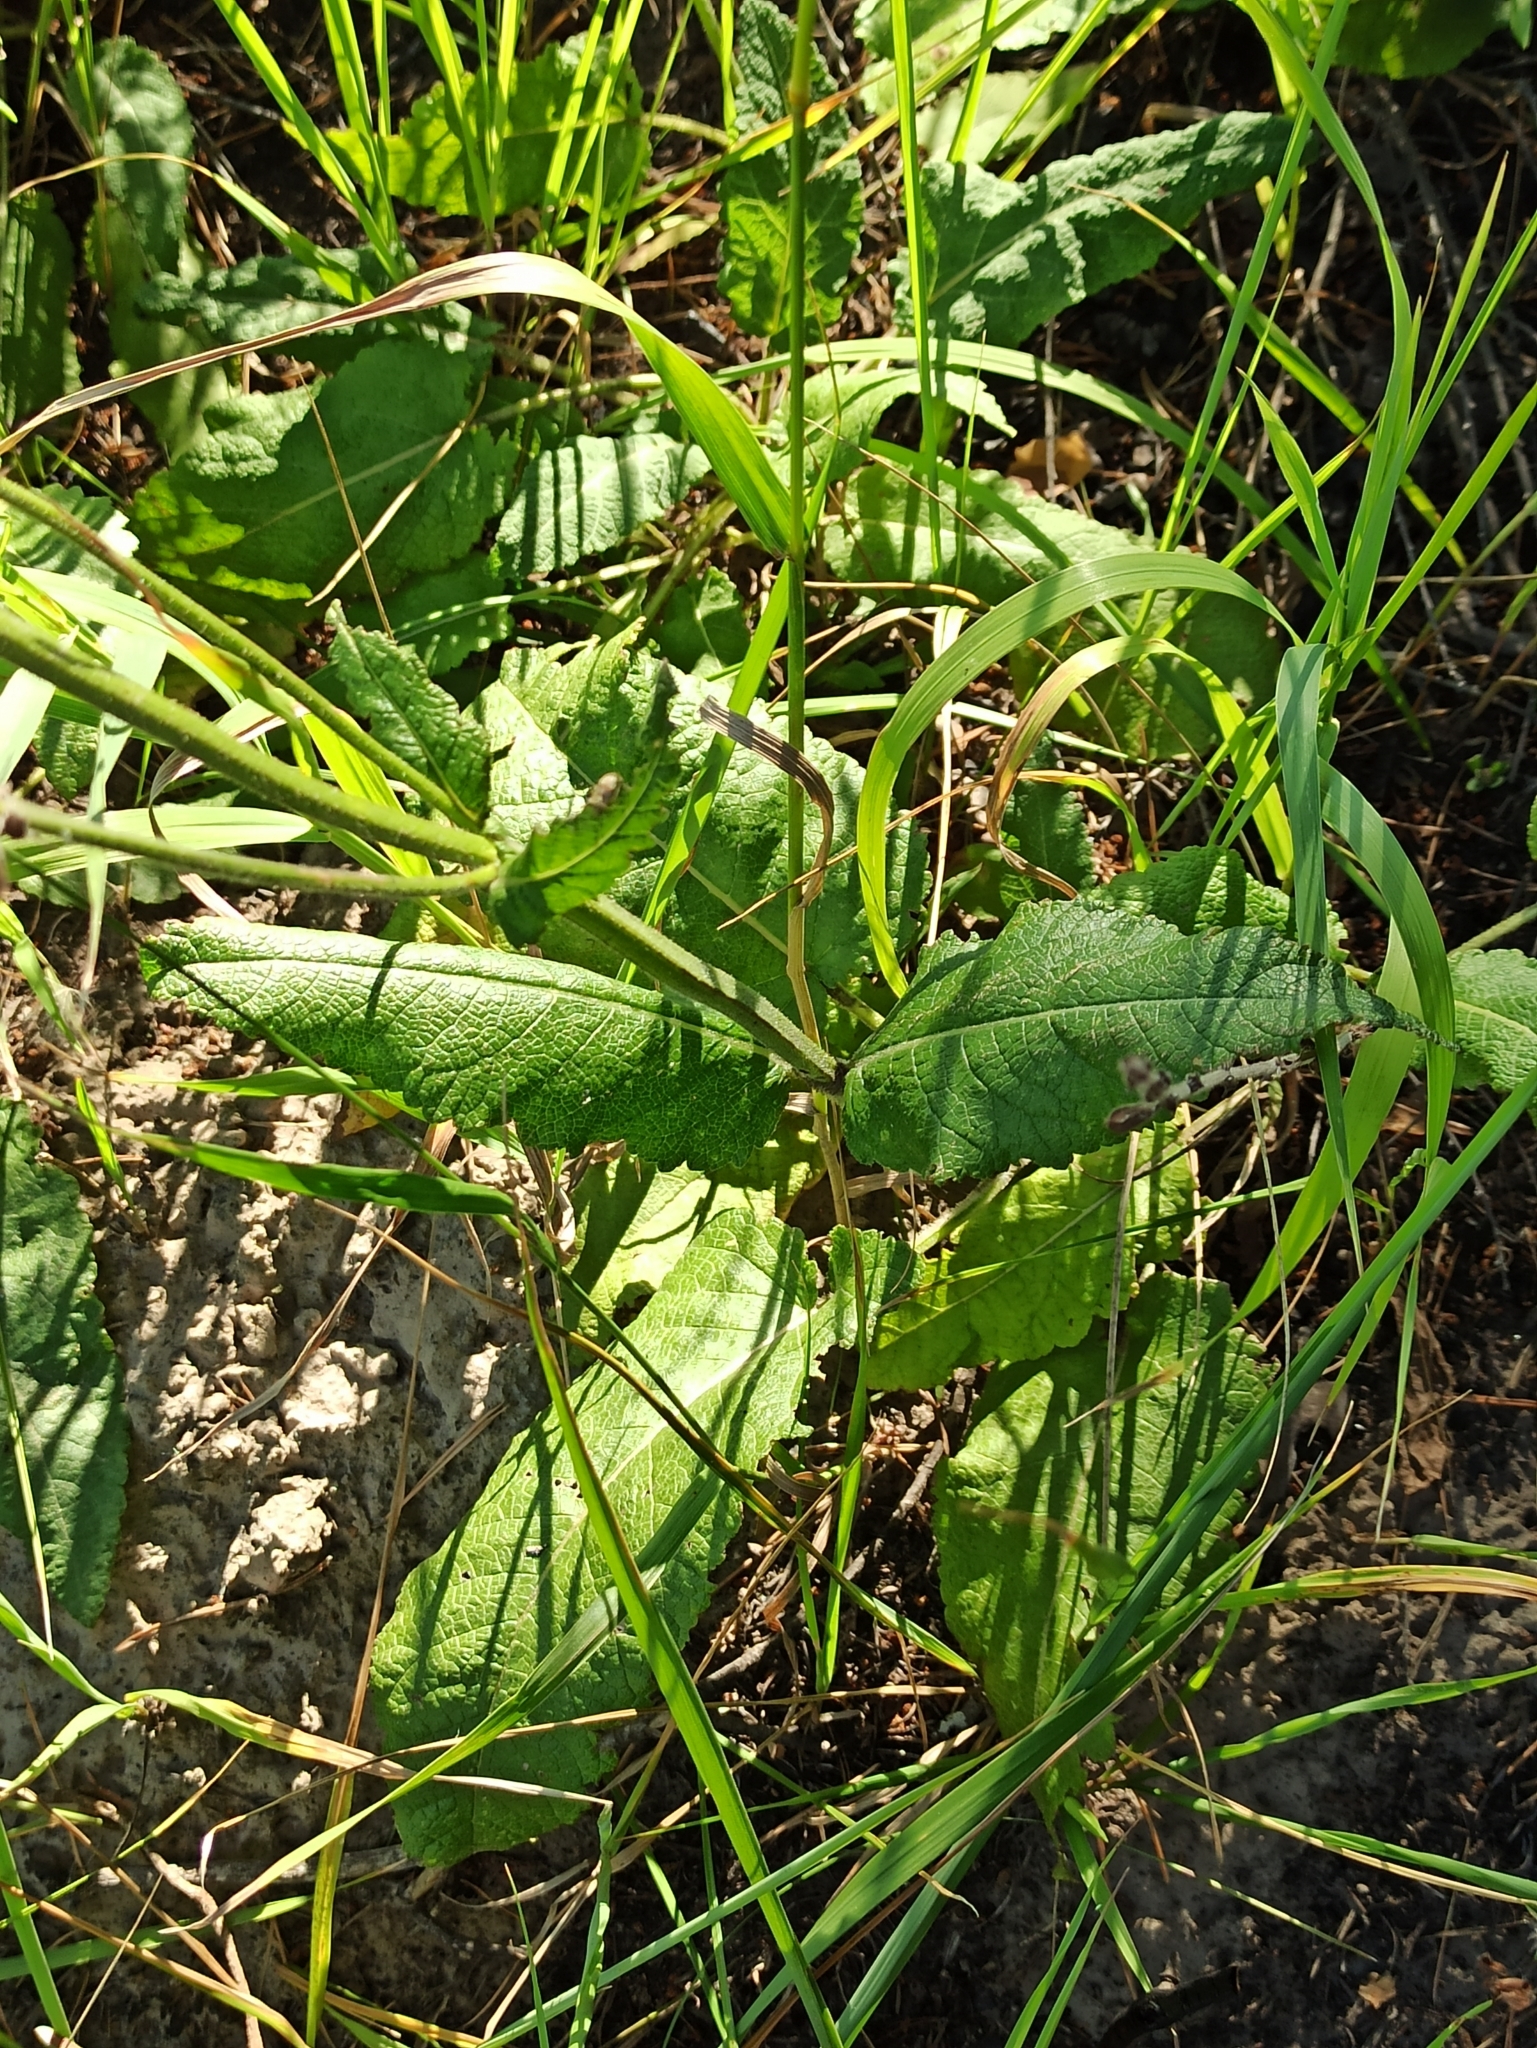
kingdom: Plantae
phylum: Tracheophyta
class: Magnoliopsida
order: Lamiales
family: Lamiaceae
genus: Salvia
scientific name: Salvia pratensis
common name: Meadow sage
